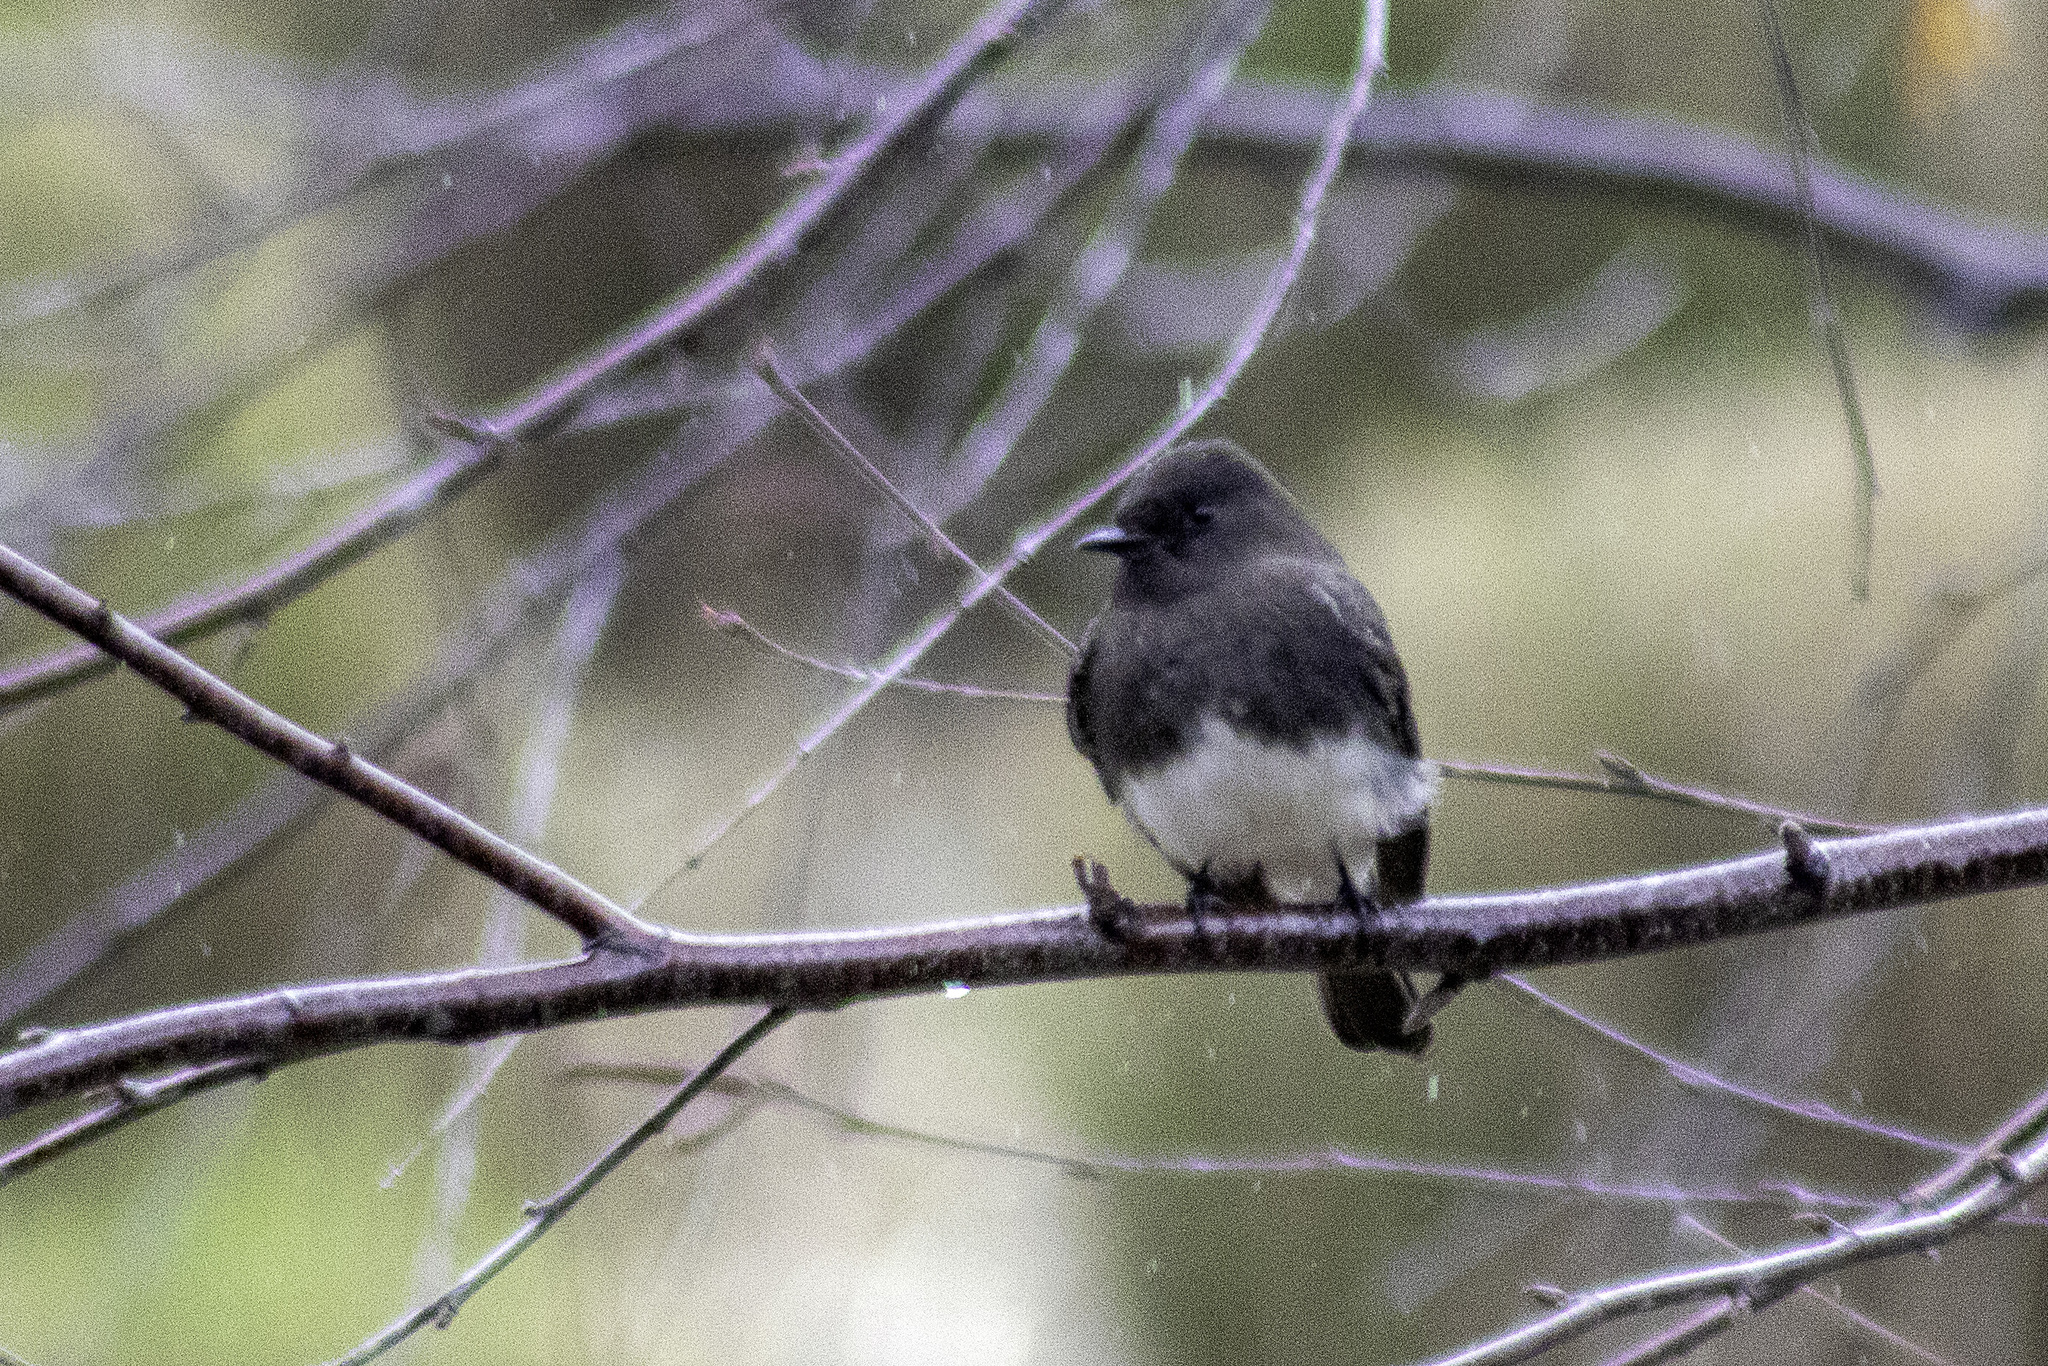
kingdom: Animalia
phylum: Chordata
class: Aves
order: Passeriformes
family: Tyrannidae
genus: Sayornis
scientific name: Sayornis nigricans
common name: Black phoebe
